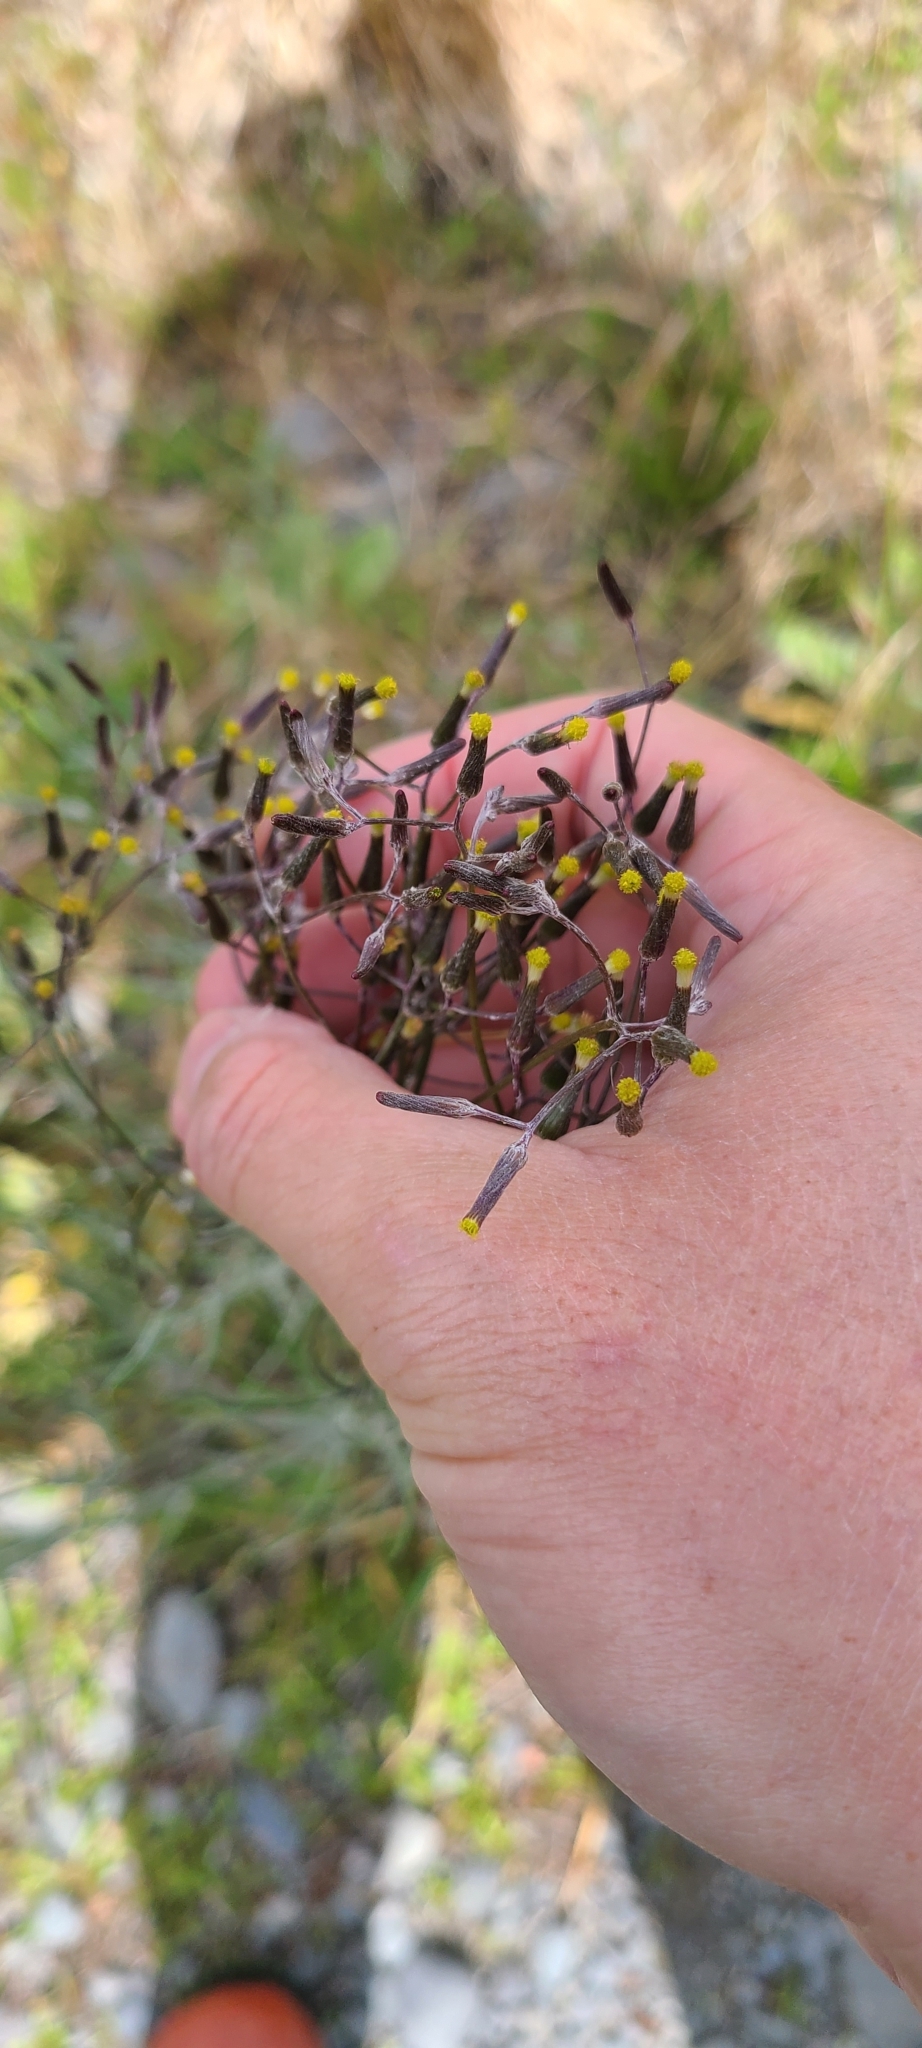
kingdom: Plantae
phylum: Tracheophyta
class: Magnoliopsida
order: Asterales
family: Asteraceae
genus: Senecio
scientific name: Senecio quadridentatus
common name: Cotton fireweed
